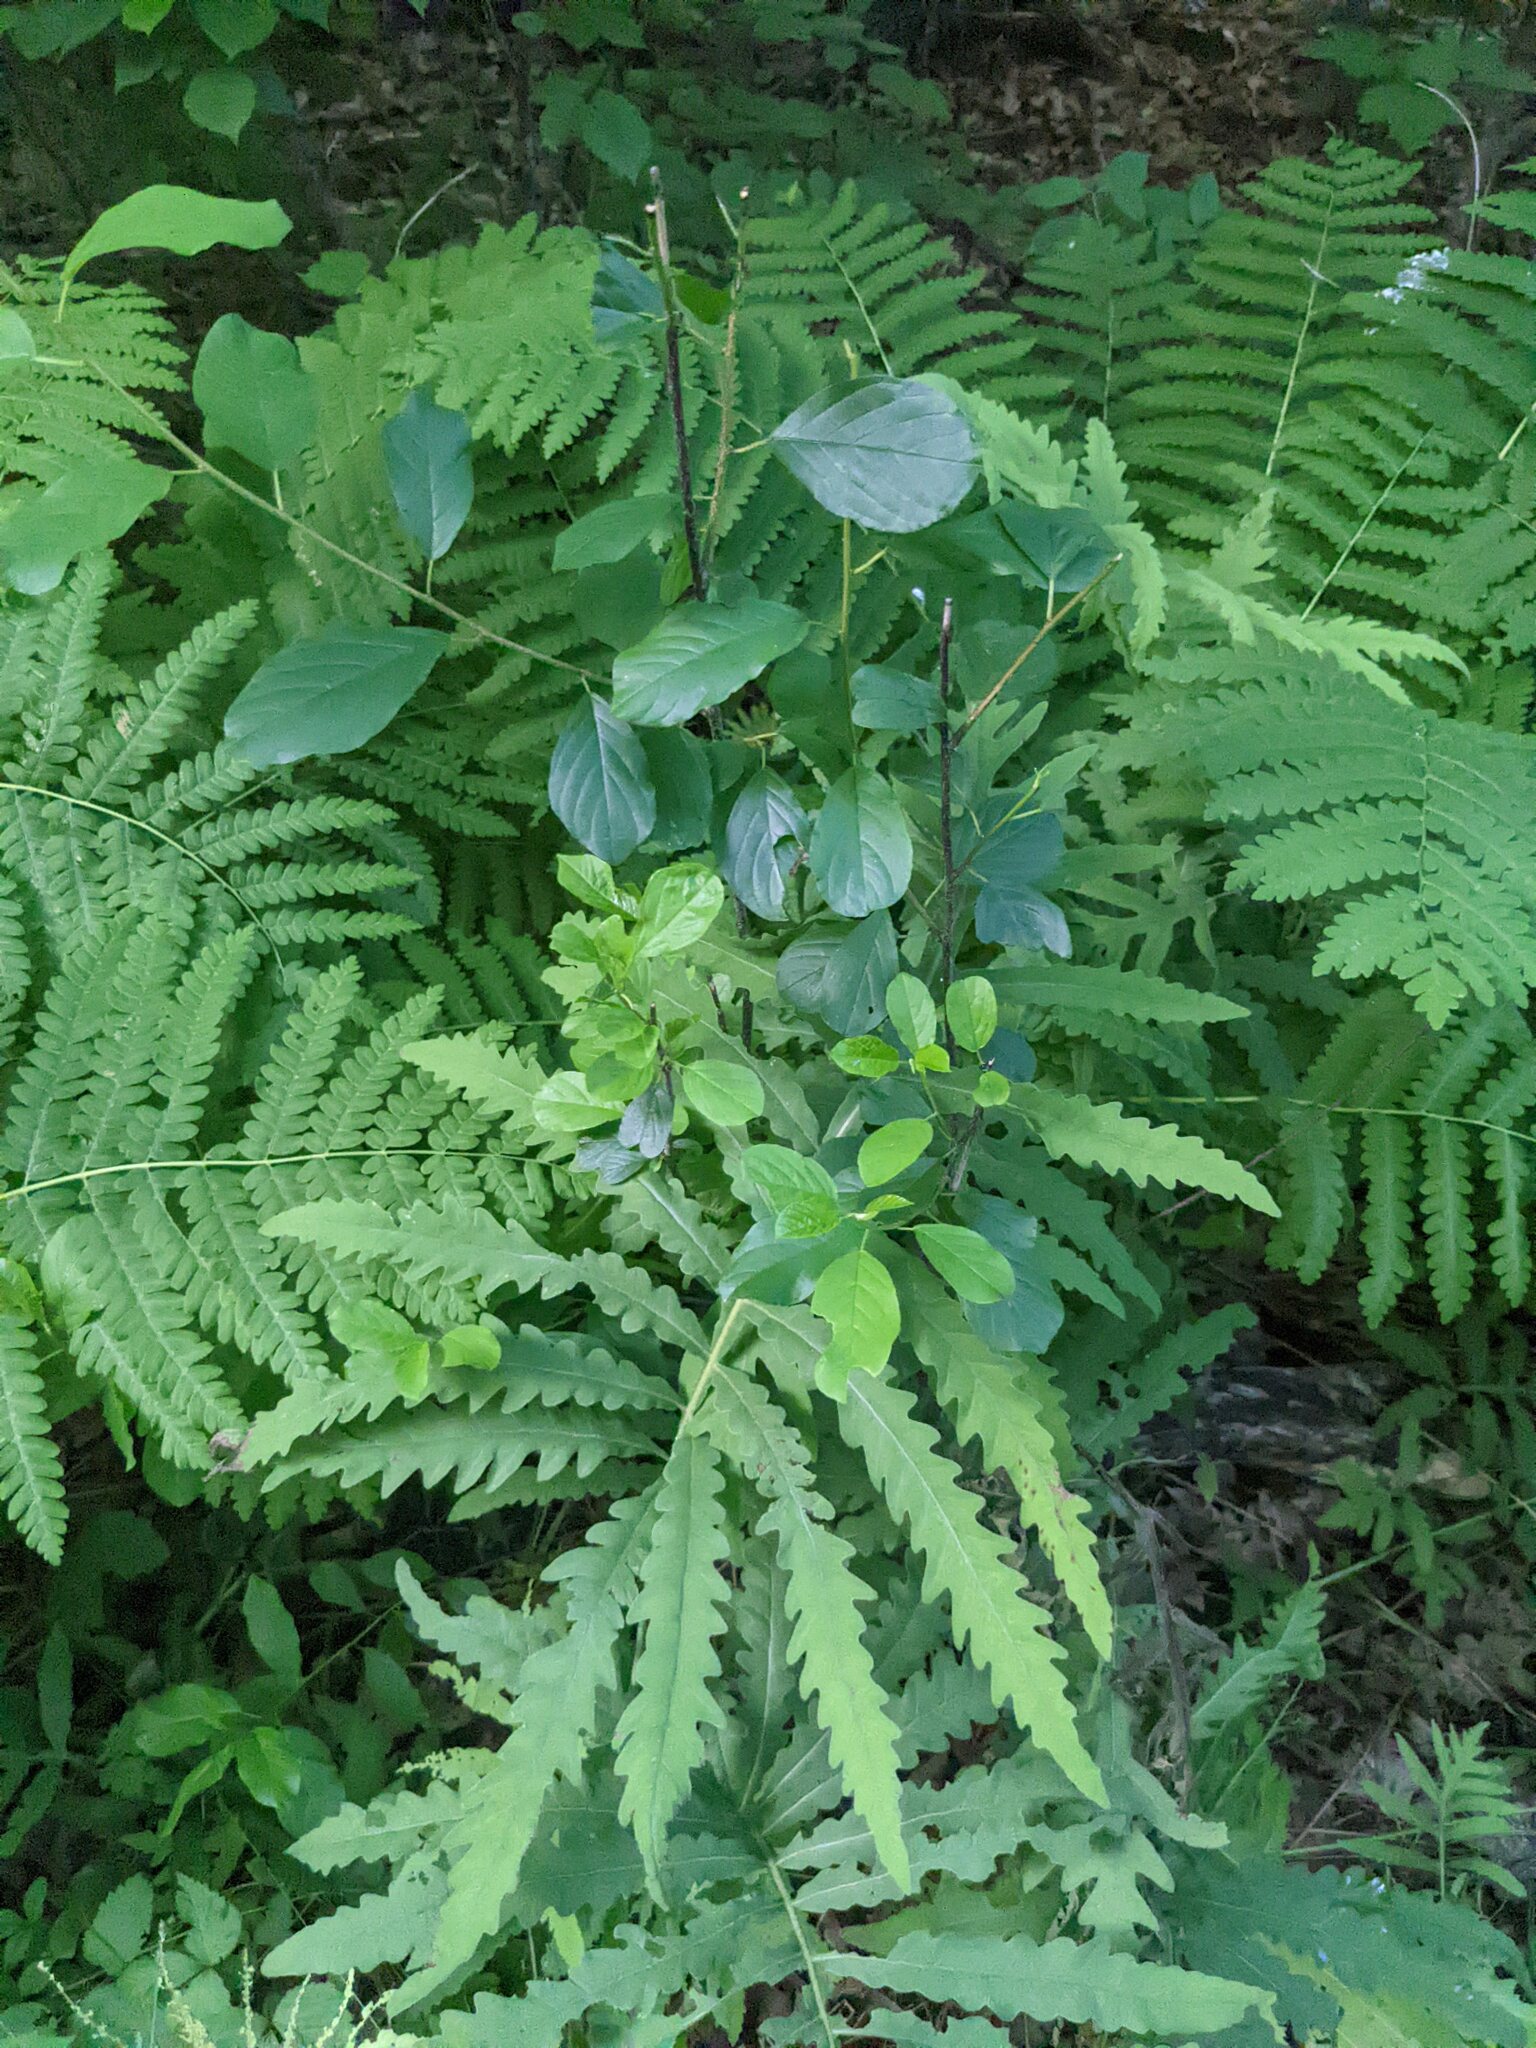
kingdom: Plantae
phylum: Tracheophyta
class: Polypodiopsida
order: Polypodiales
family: Onocleaceae
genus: Onoclea
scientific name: Onoclea sensibilis
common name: Sensitive fern
